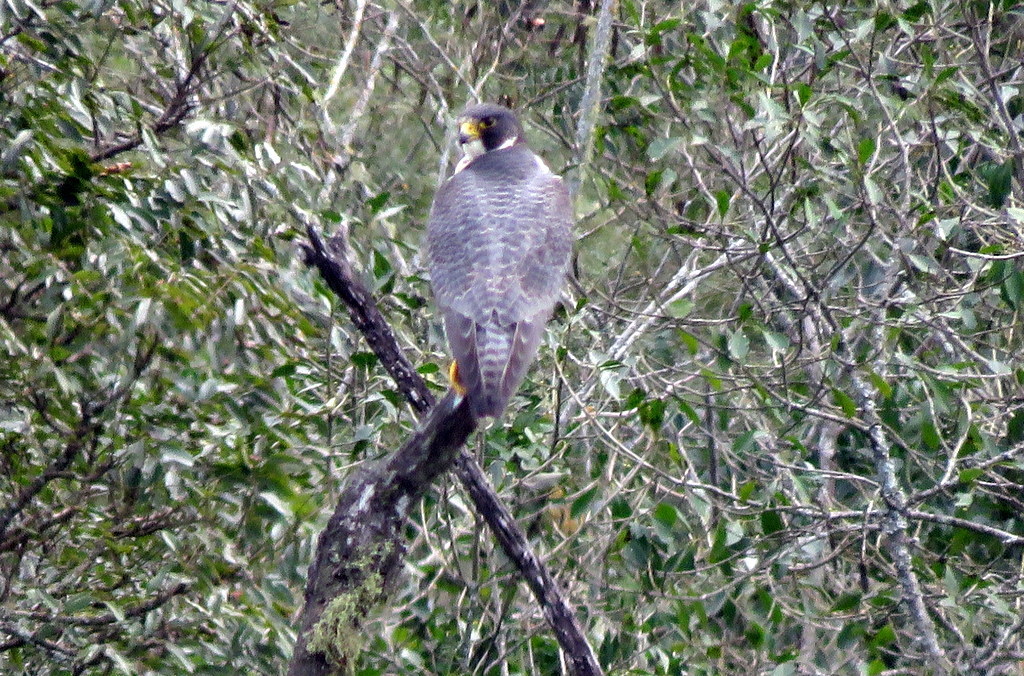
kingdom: Animalia
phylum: Chordata
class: Aves
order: Falconiformes
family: Falconidae
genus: Falco
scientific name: Falco peregrinus
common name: Peregrine falcon
